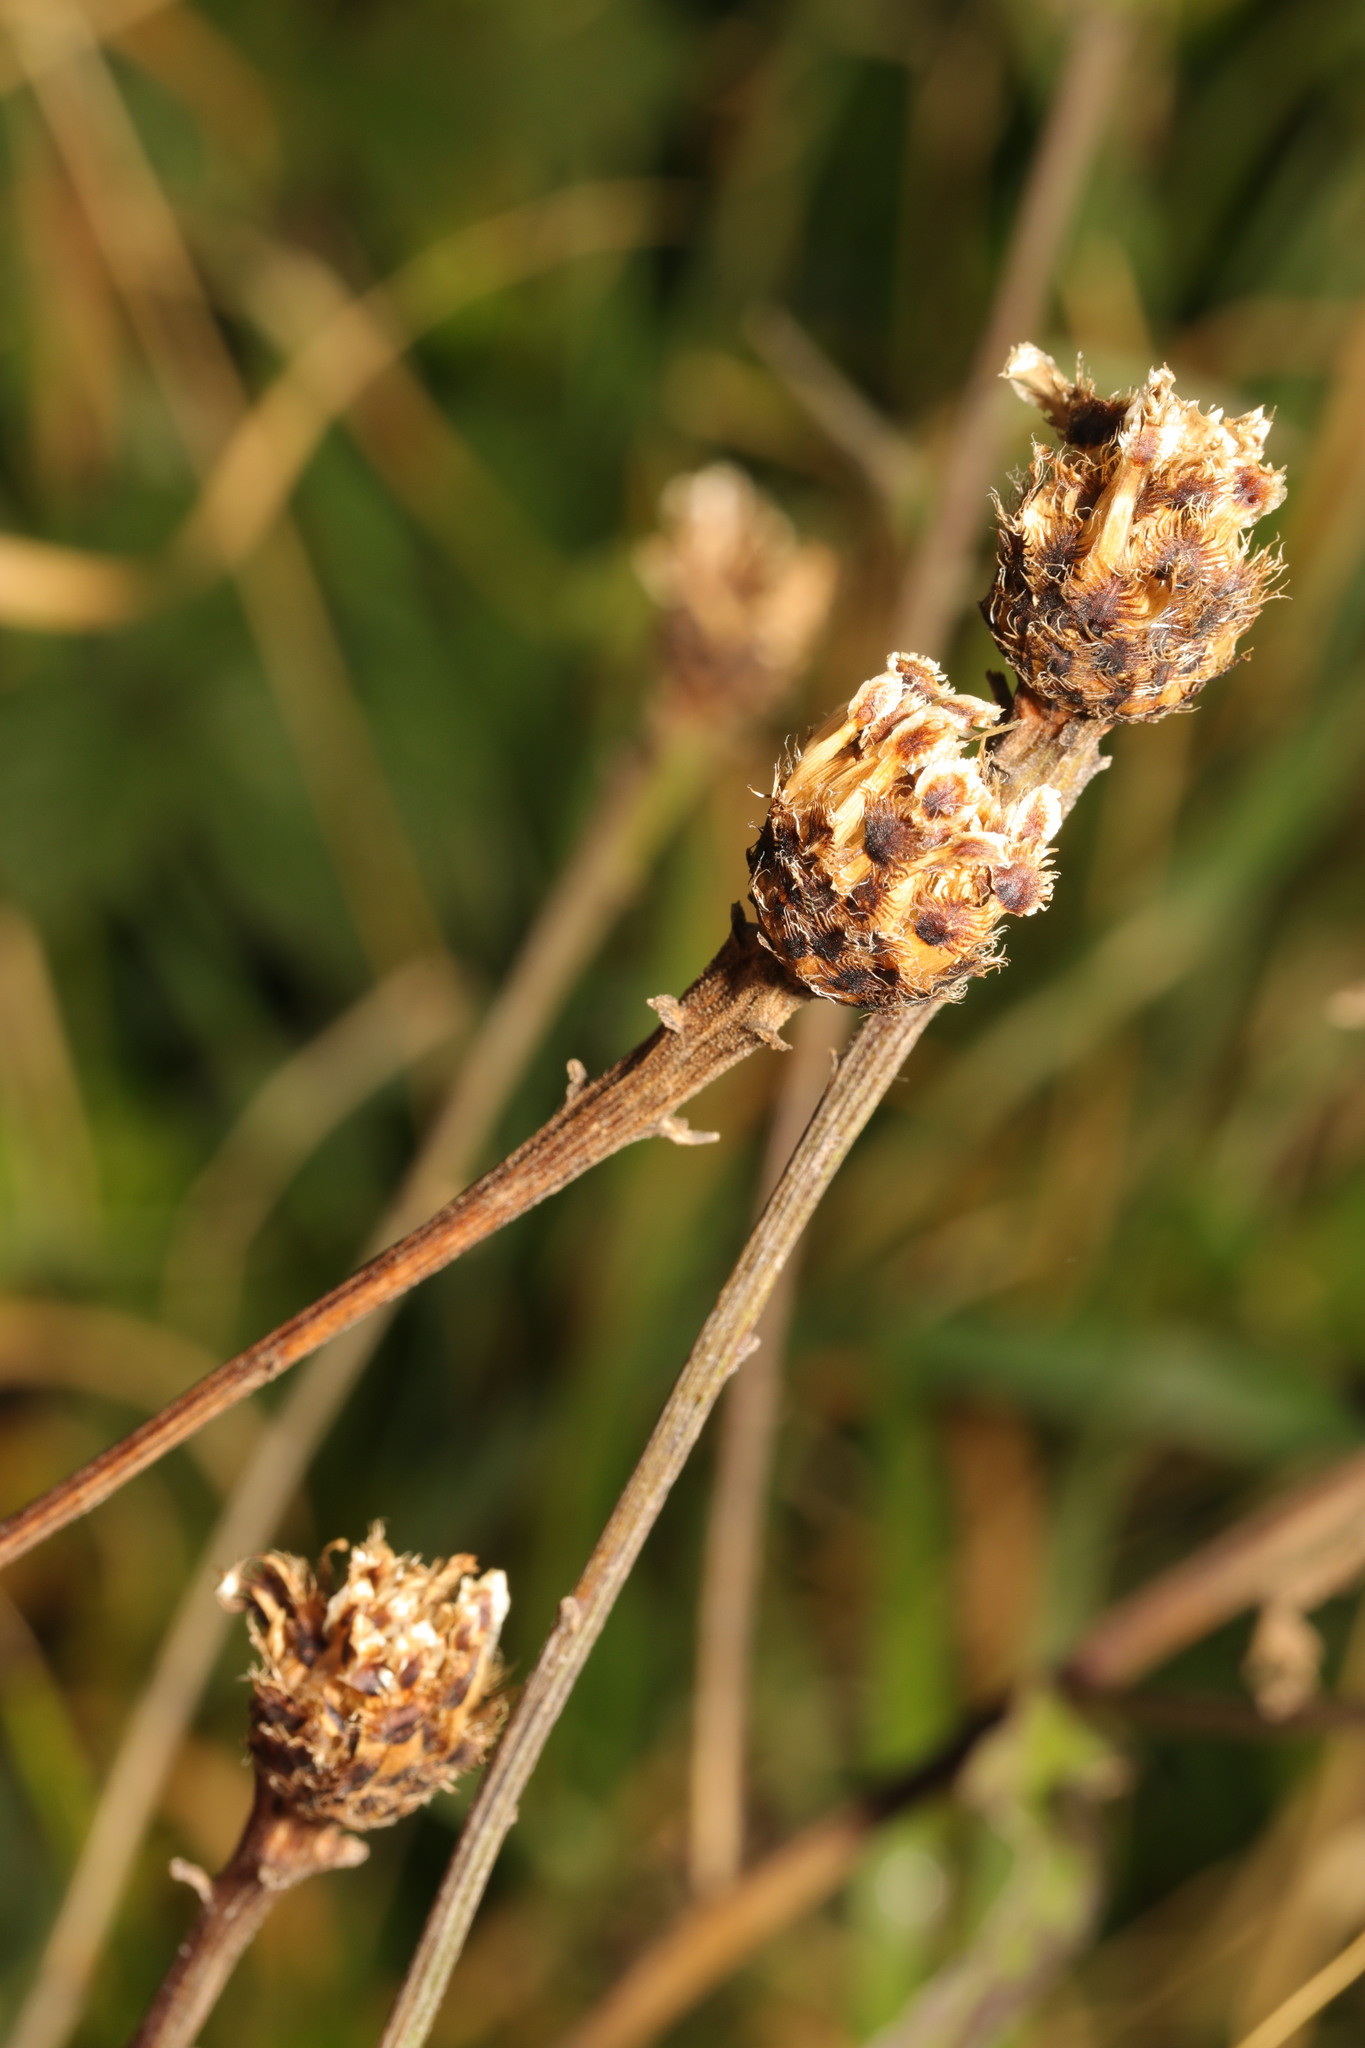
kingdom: Plantae
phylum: Tracheophyta
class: Magnoliopsida
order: Asterales
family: Asteraceae
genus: Centaurea
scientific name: Centaurea nigra
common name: Lesser knapweed
